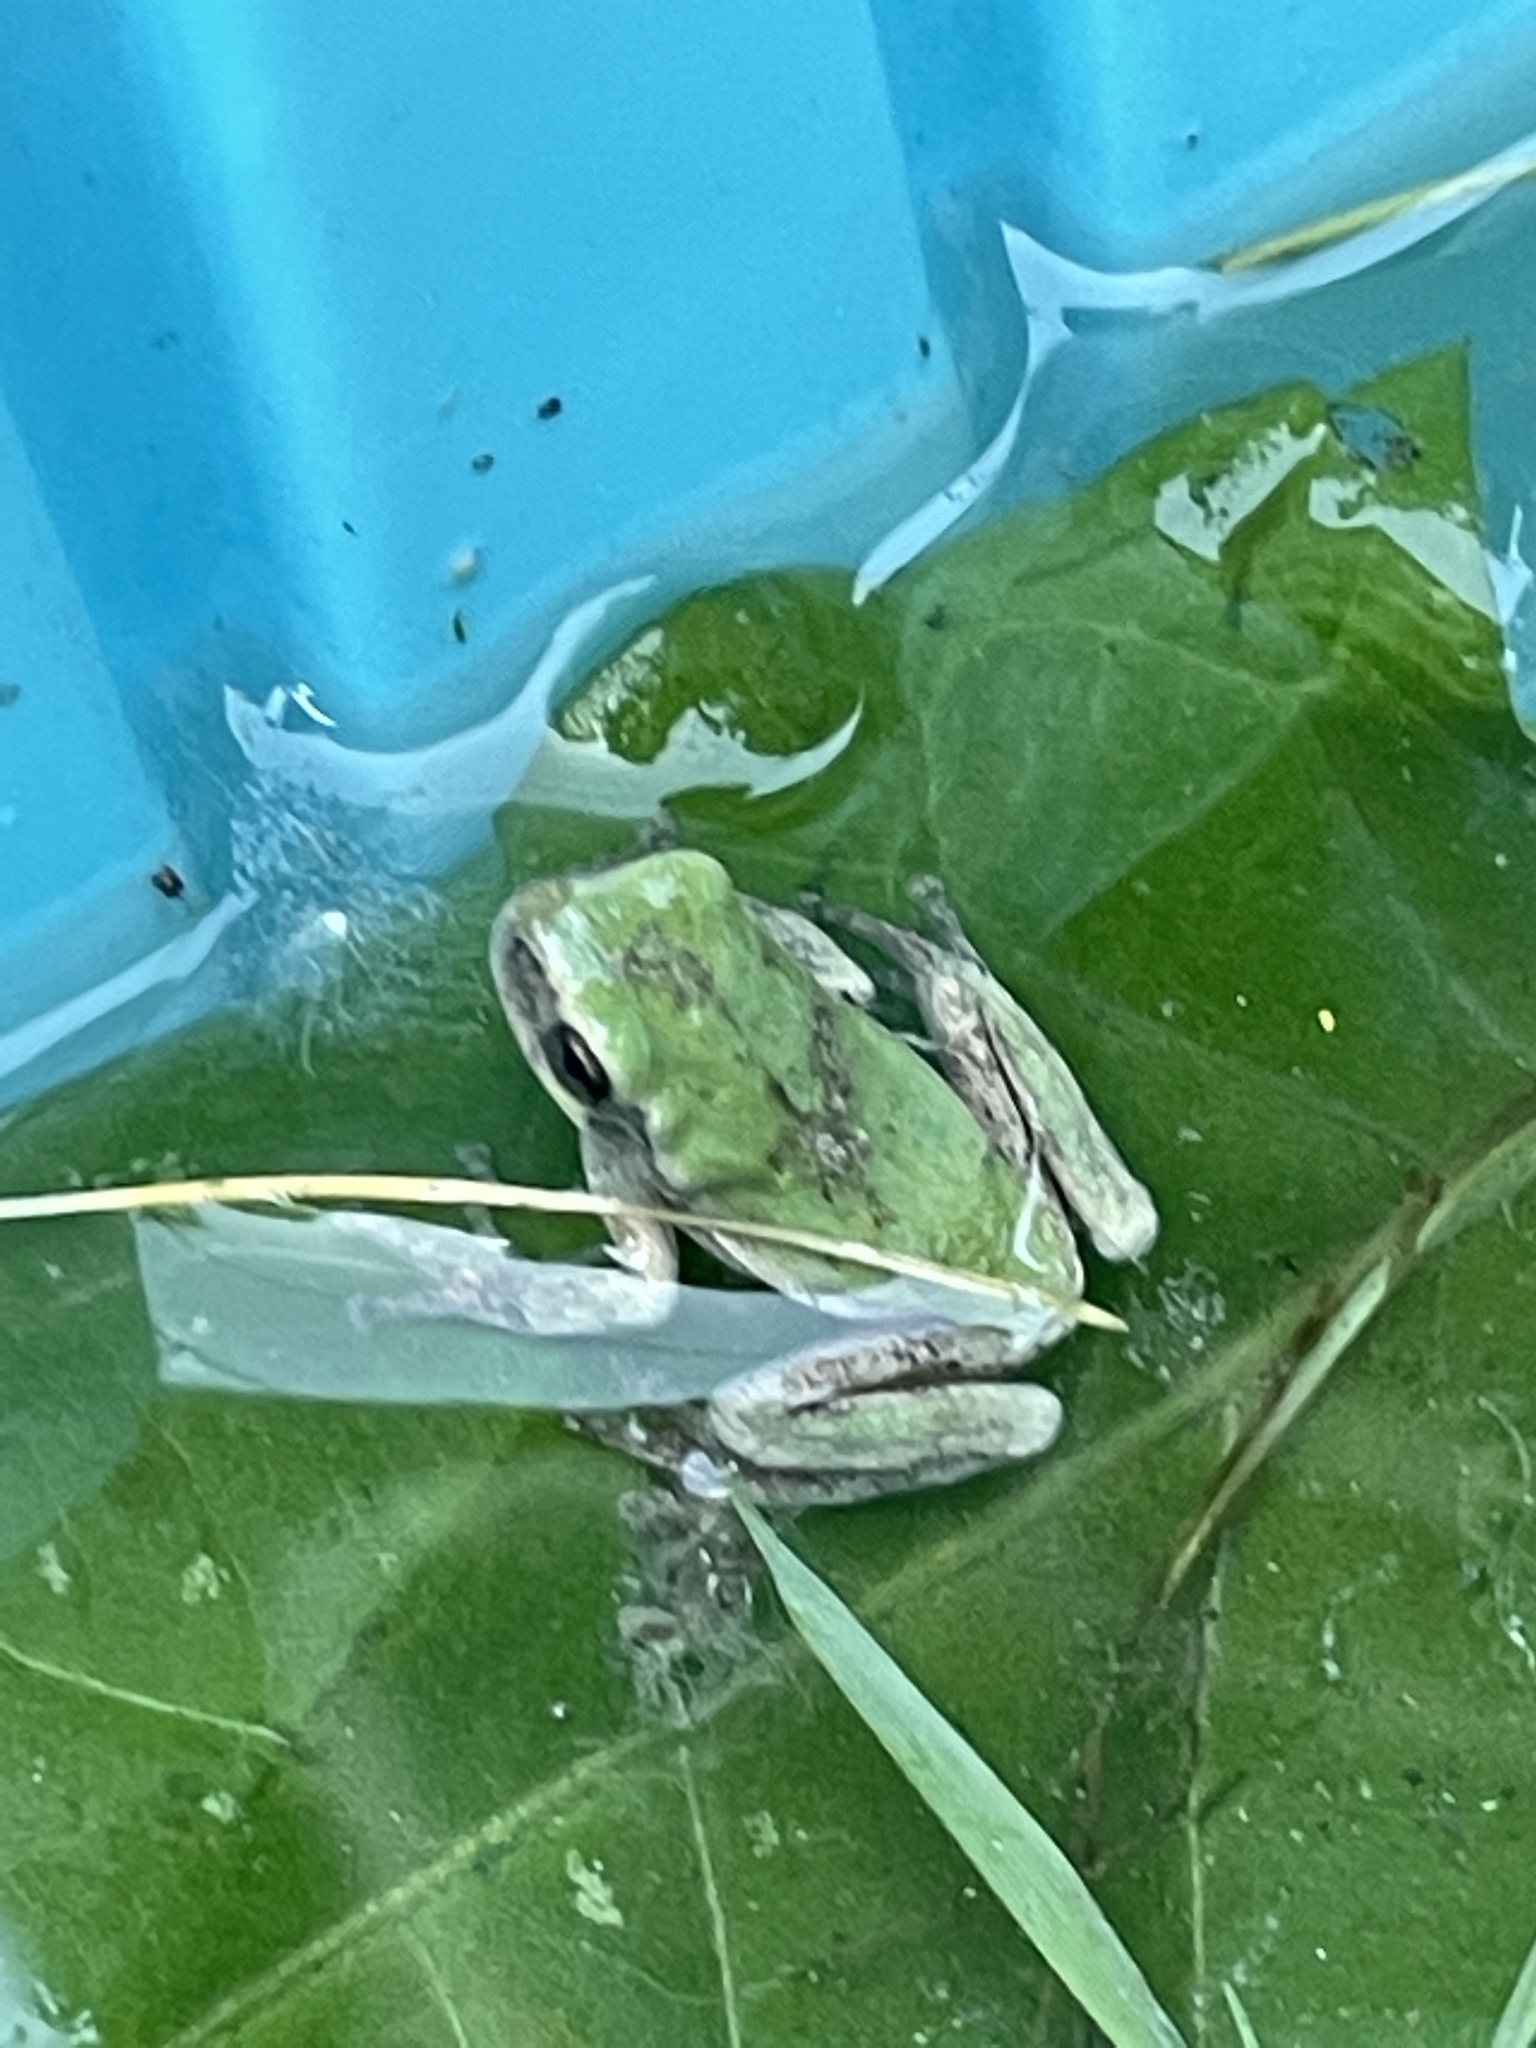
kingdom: Animalia
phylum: Chordata
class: Amphibia
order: Anura
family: Hylidae
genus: Hyla
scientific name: Hyla
